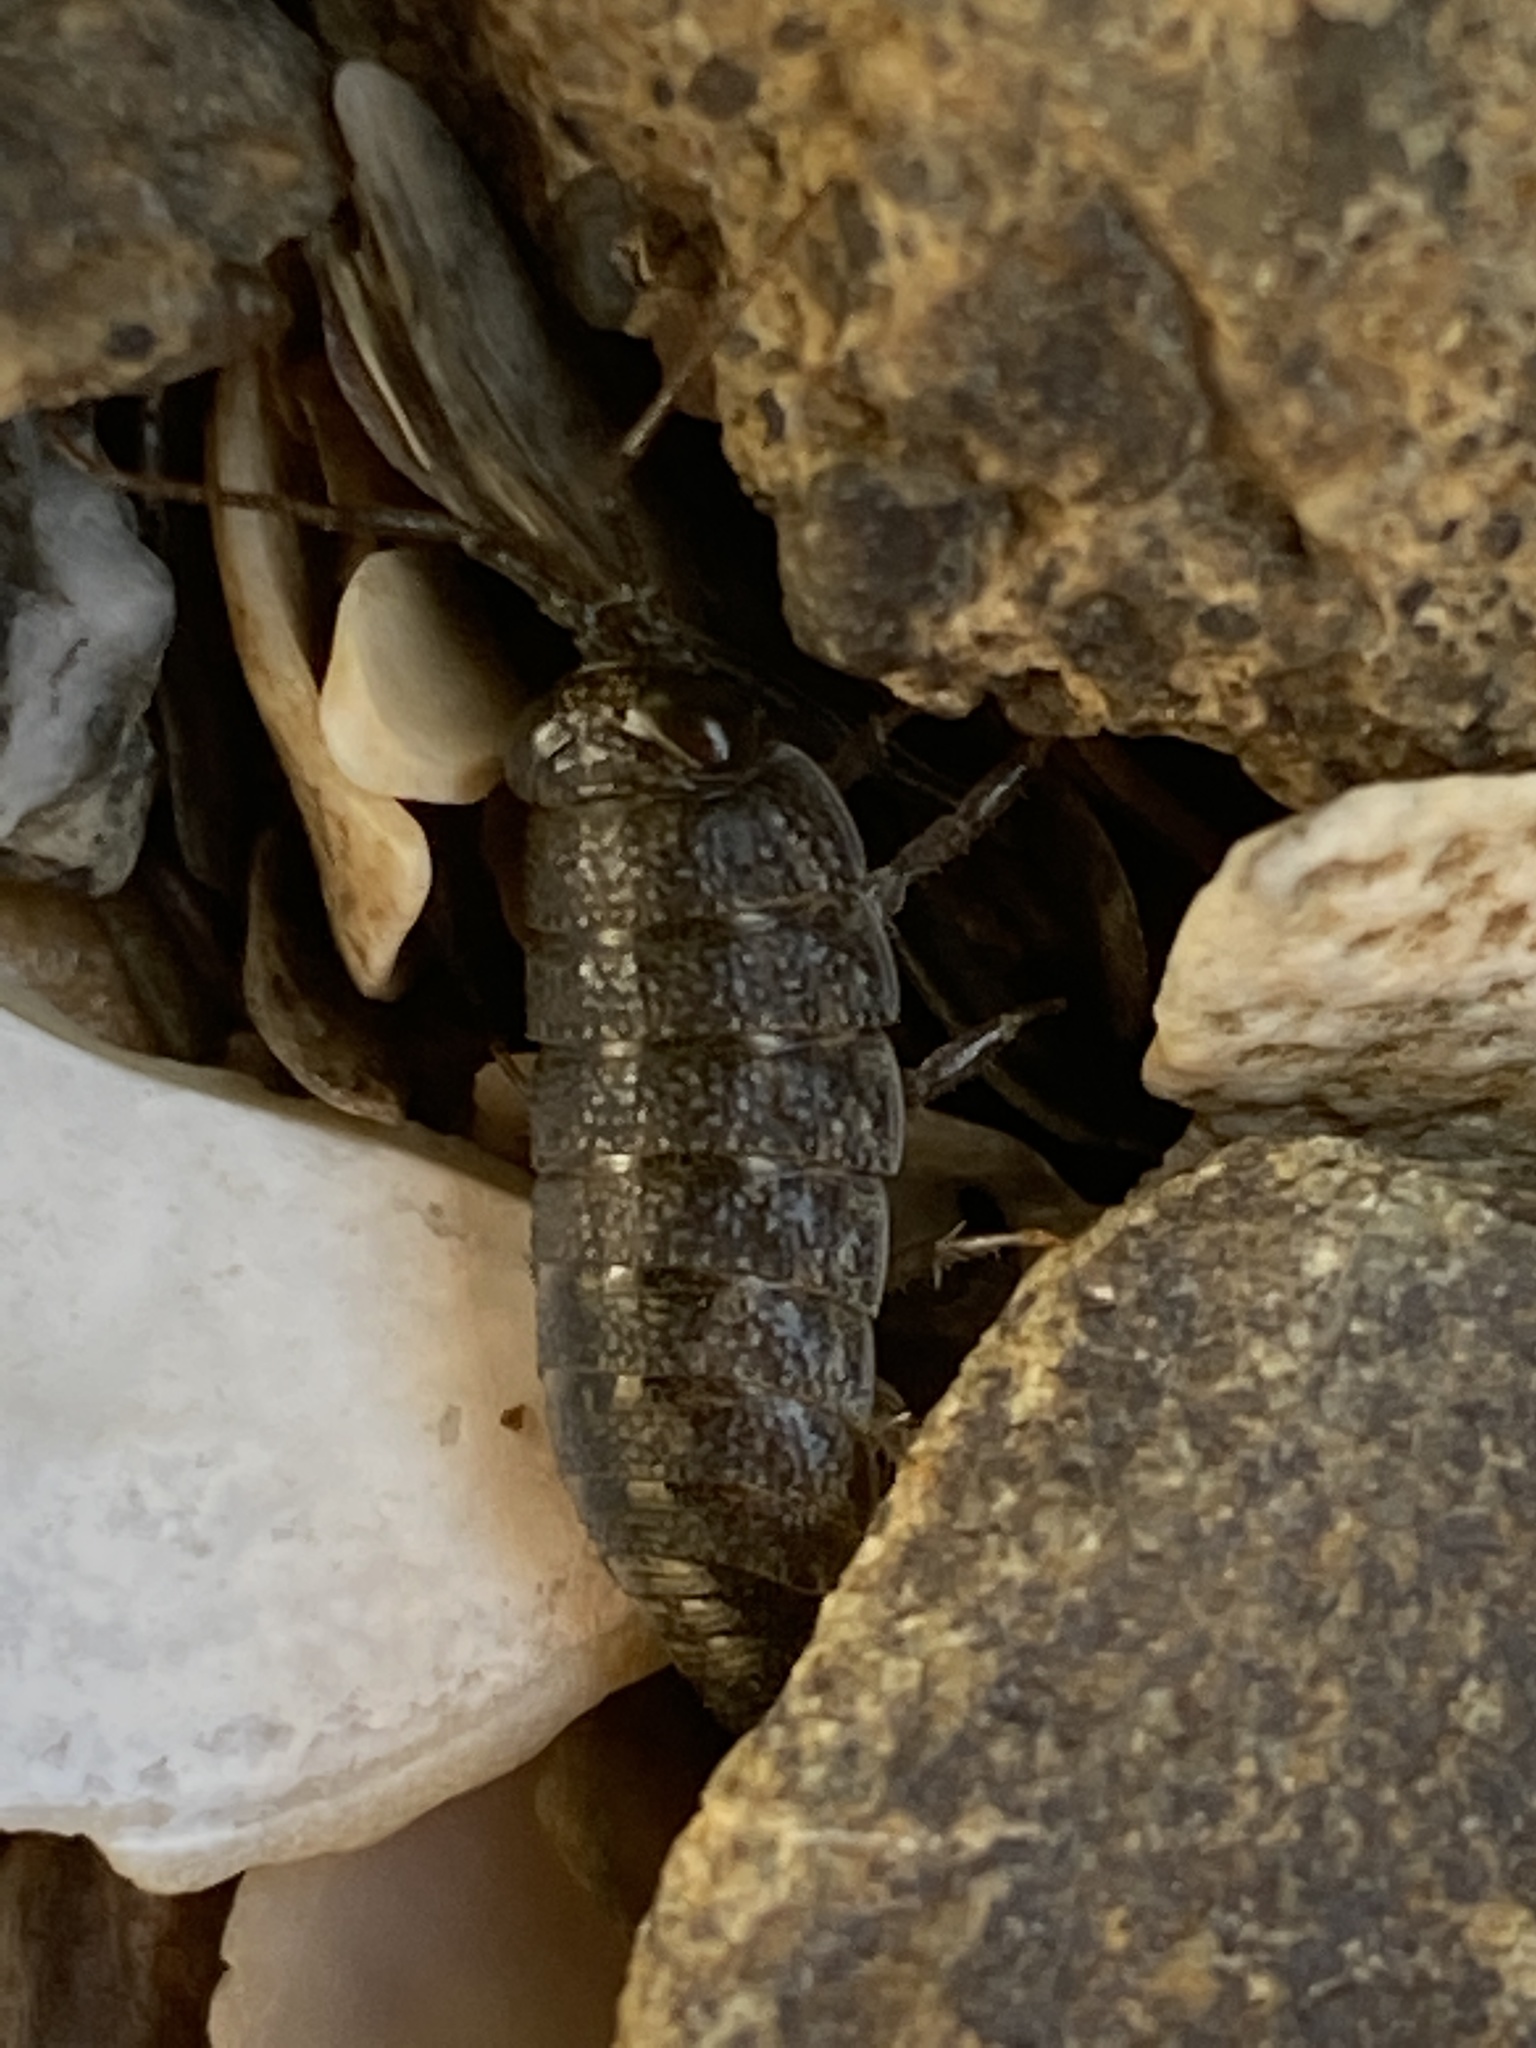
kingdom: Animalia
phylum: Arthropoda
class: Malacostraca
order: Isopoda
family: Ligiidae
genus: Ligia
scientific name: Ligia occidentalis
